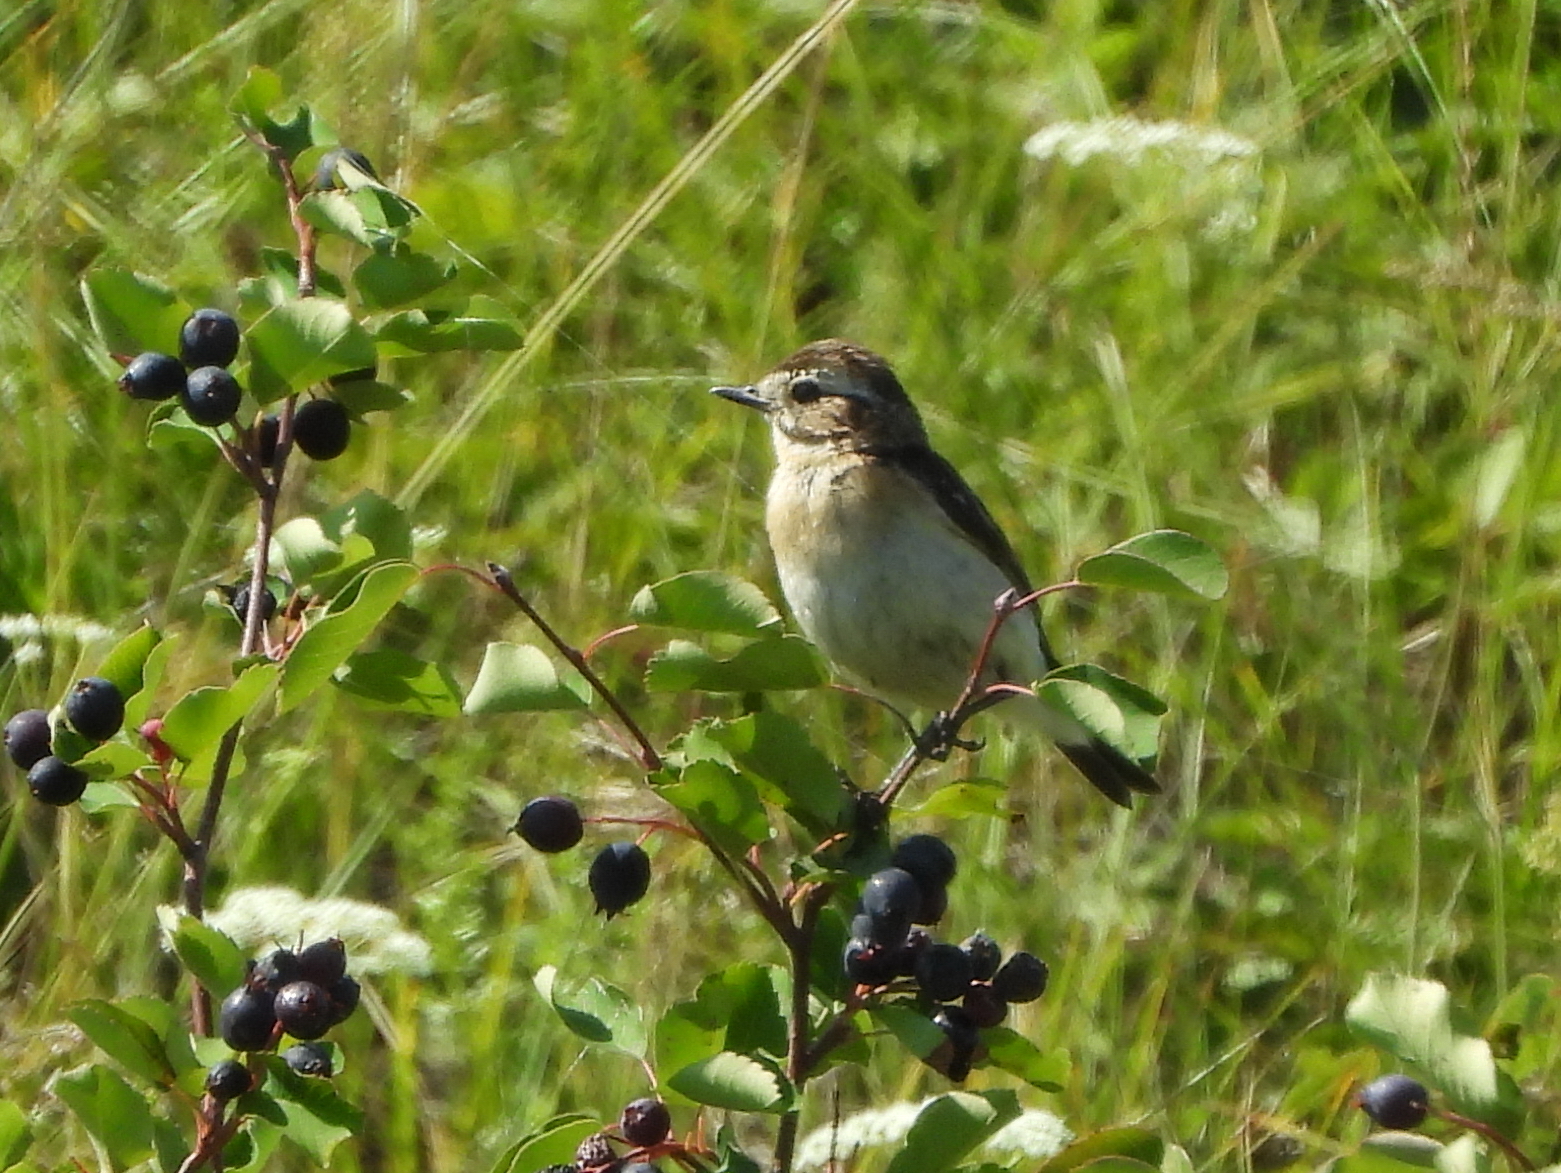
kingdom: Animalia
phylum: Chordata
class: Aves
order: Passeriformes
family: Muscicapidae
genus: Saxicola
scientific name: Saxicola rubetra
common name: Whinchat
